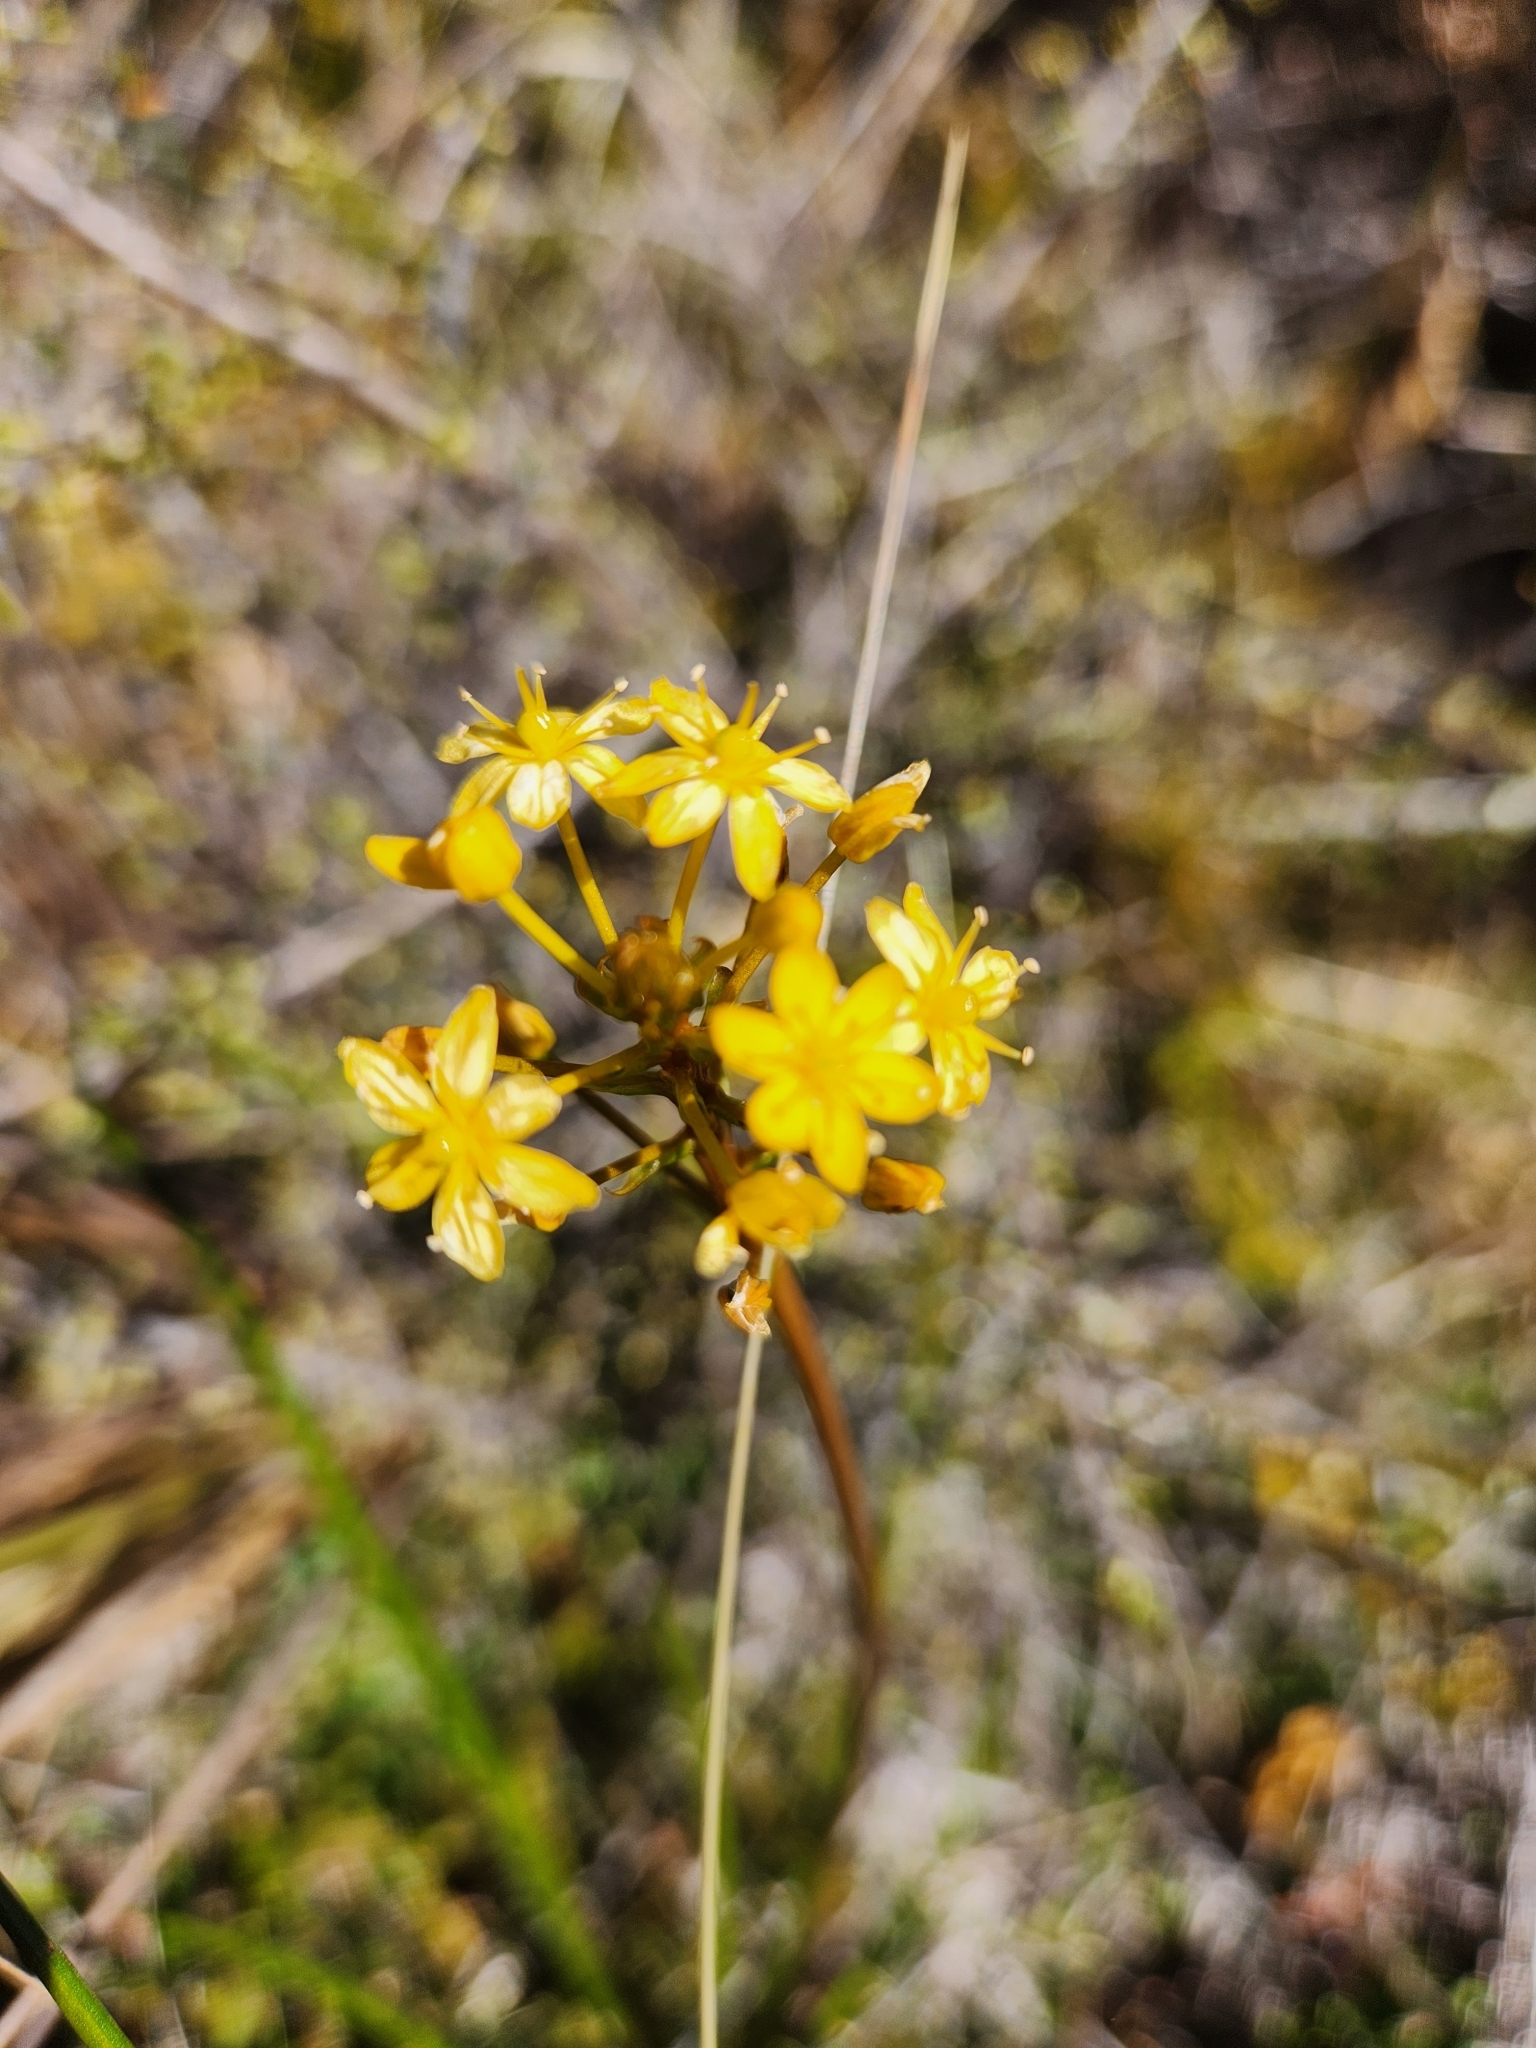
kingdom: Plantae
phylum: Tracheophyta
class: Liliopsida
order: Asparagales
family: Asphodelaceae
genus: Bulbinella
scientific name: Bulbinella angustifolia
